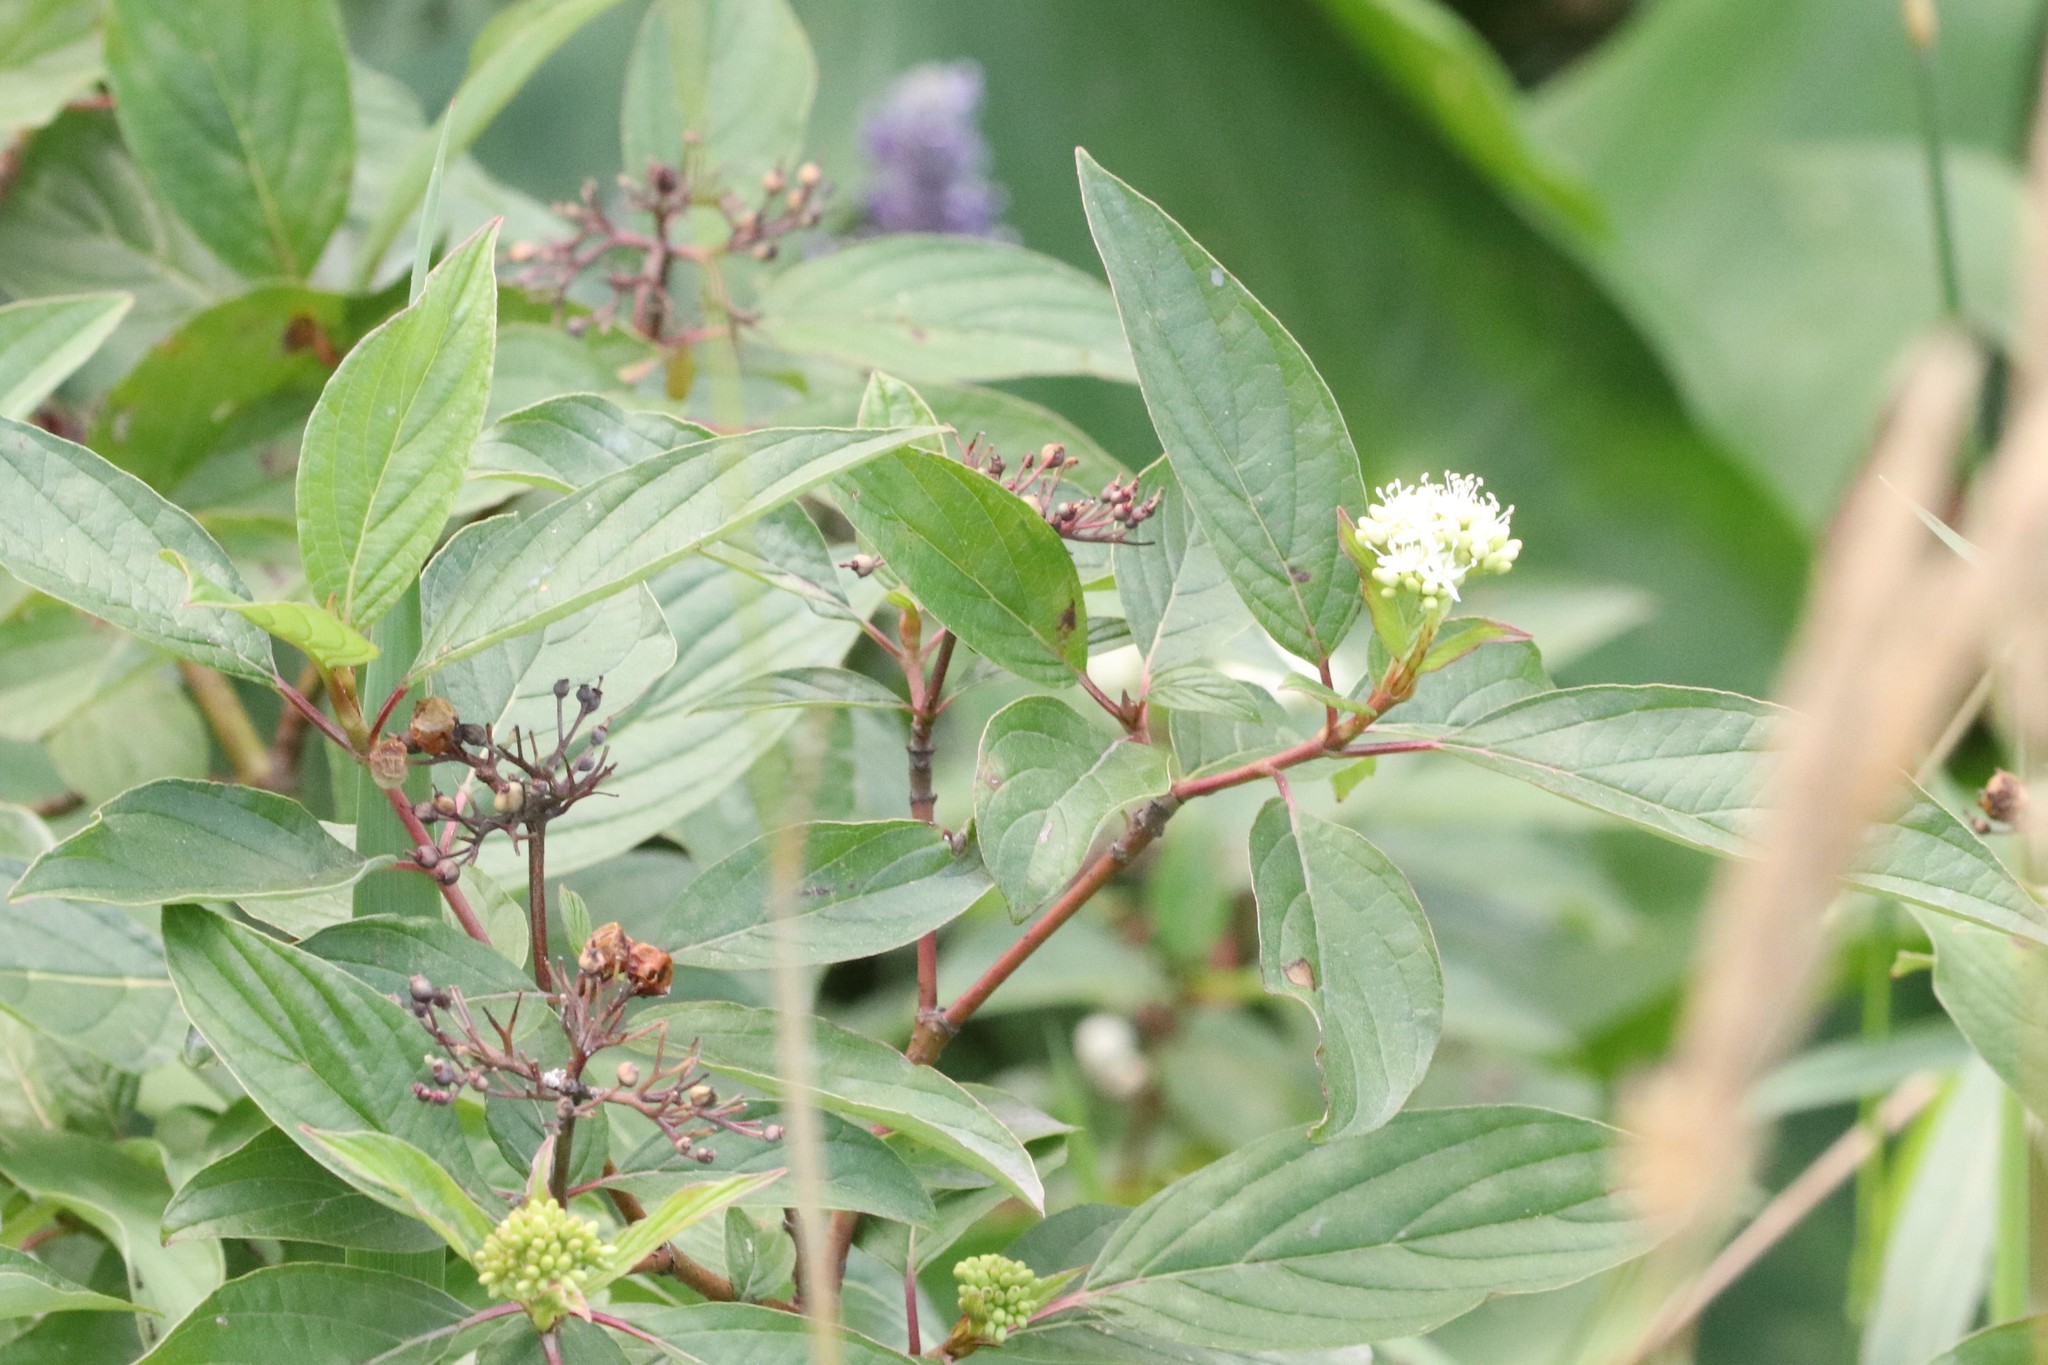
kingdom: Plantae
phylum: Tracheophyta
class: Magnoliopsida
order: Cornales
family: Cornaceae
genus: Cornus
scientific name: Cornus sericea
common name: Red-osier dogwood
